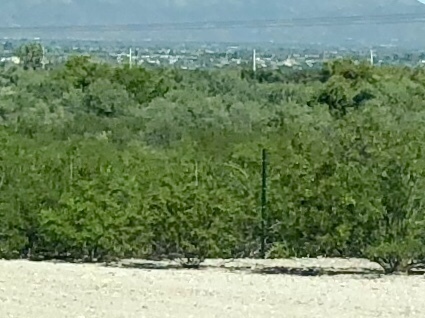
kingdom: Plantae
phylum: Tracheophyta
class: Magnoliopsida
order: Zygophyllales
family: Zygophyllaceae
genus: Larrea
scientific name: Larrea tridentata
